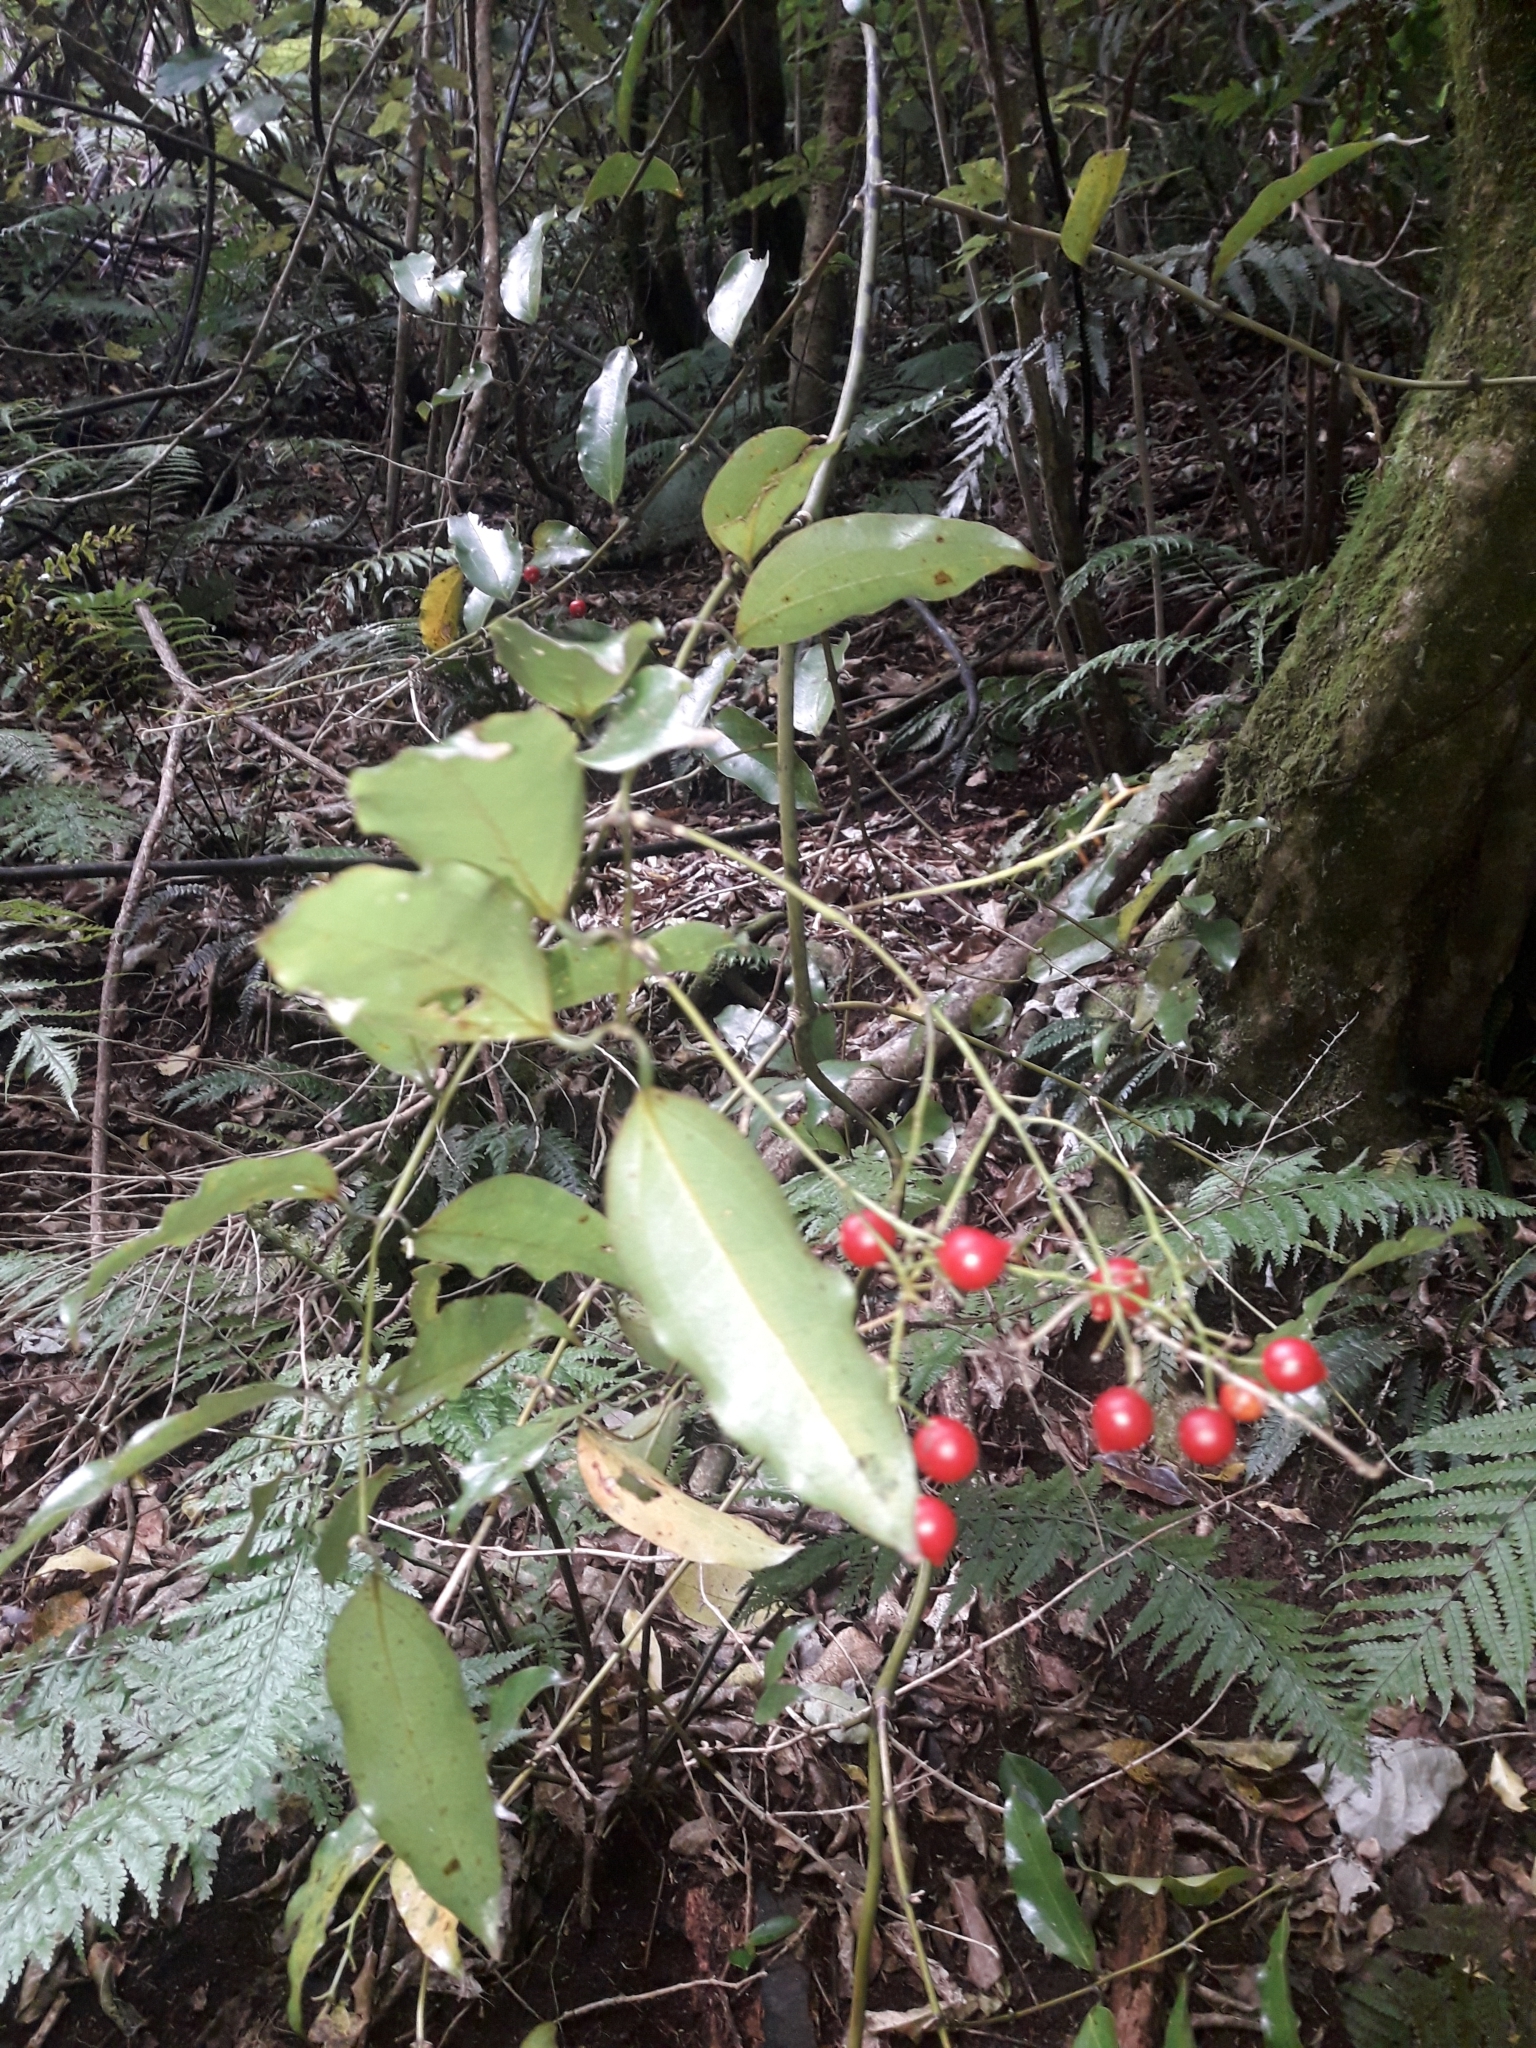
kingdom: Plantae
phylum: Tracheophyta
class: Liliopsida
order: Liliales
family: Ripogonaceae
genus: Ripogonum
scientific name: Ripogonum scandens
